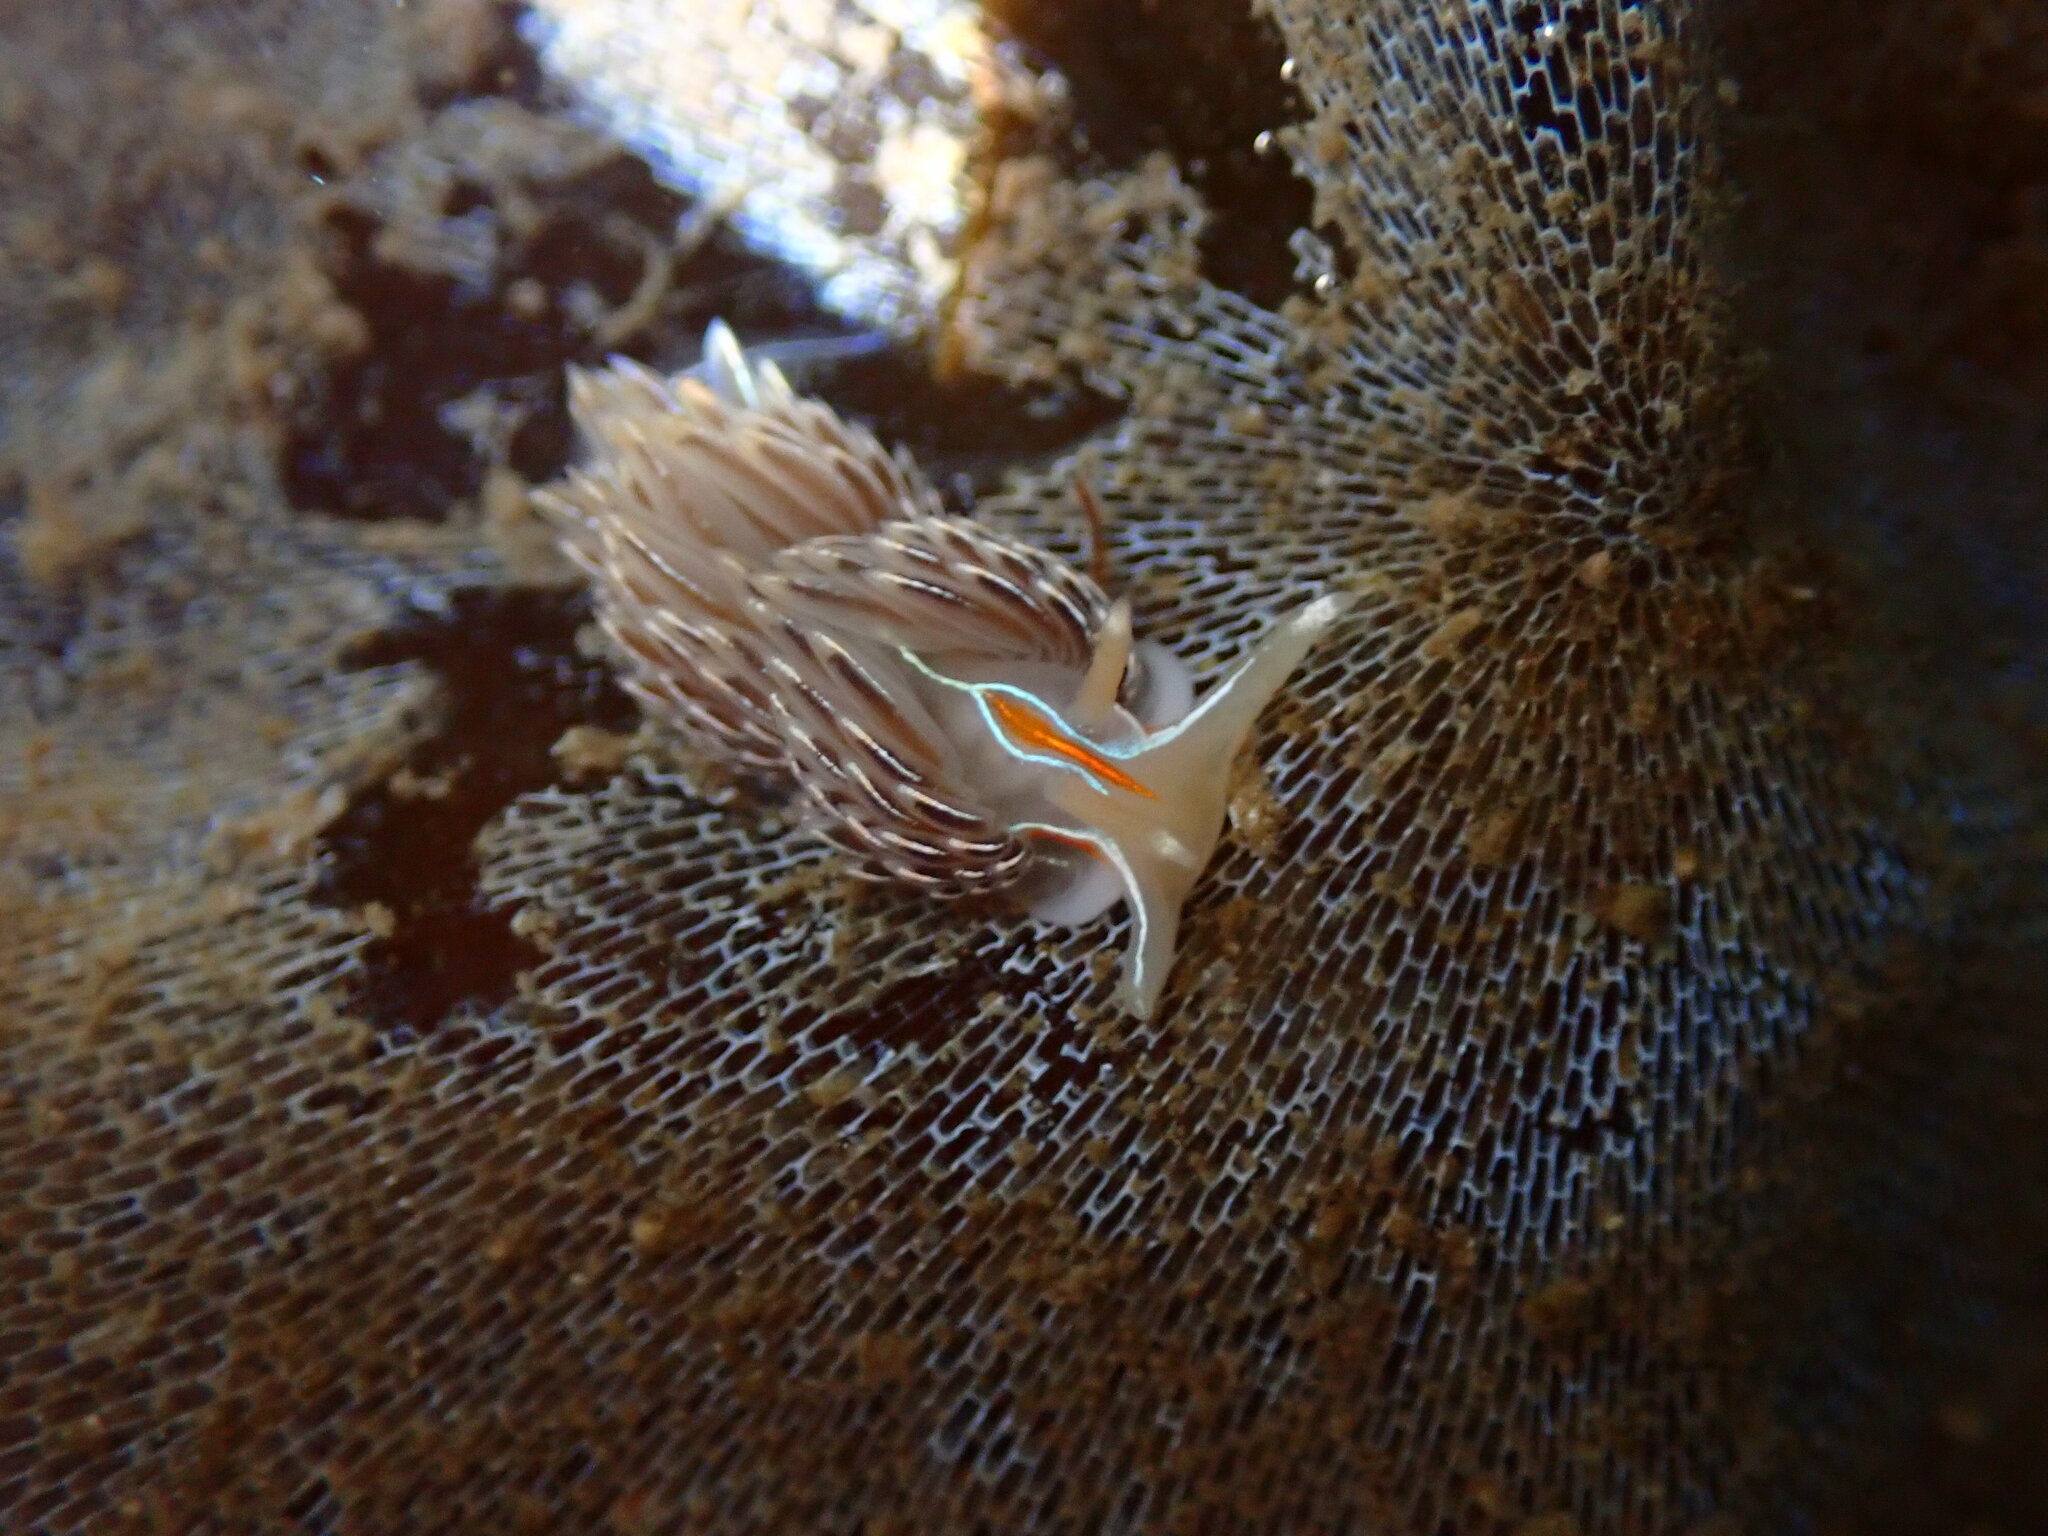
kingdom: Animalia
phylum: Mollusca
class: Gastropoda
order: Nudibranchia
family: Myrrhinidae
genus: Hermissenda
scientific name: Hermissenda crassicornis
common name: Hermissenda
